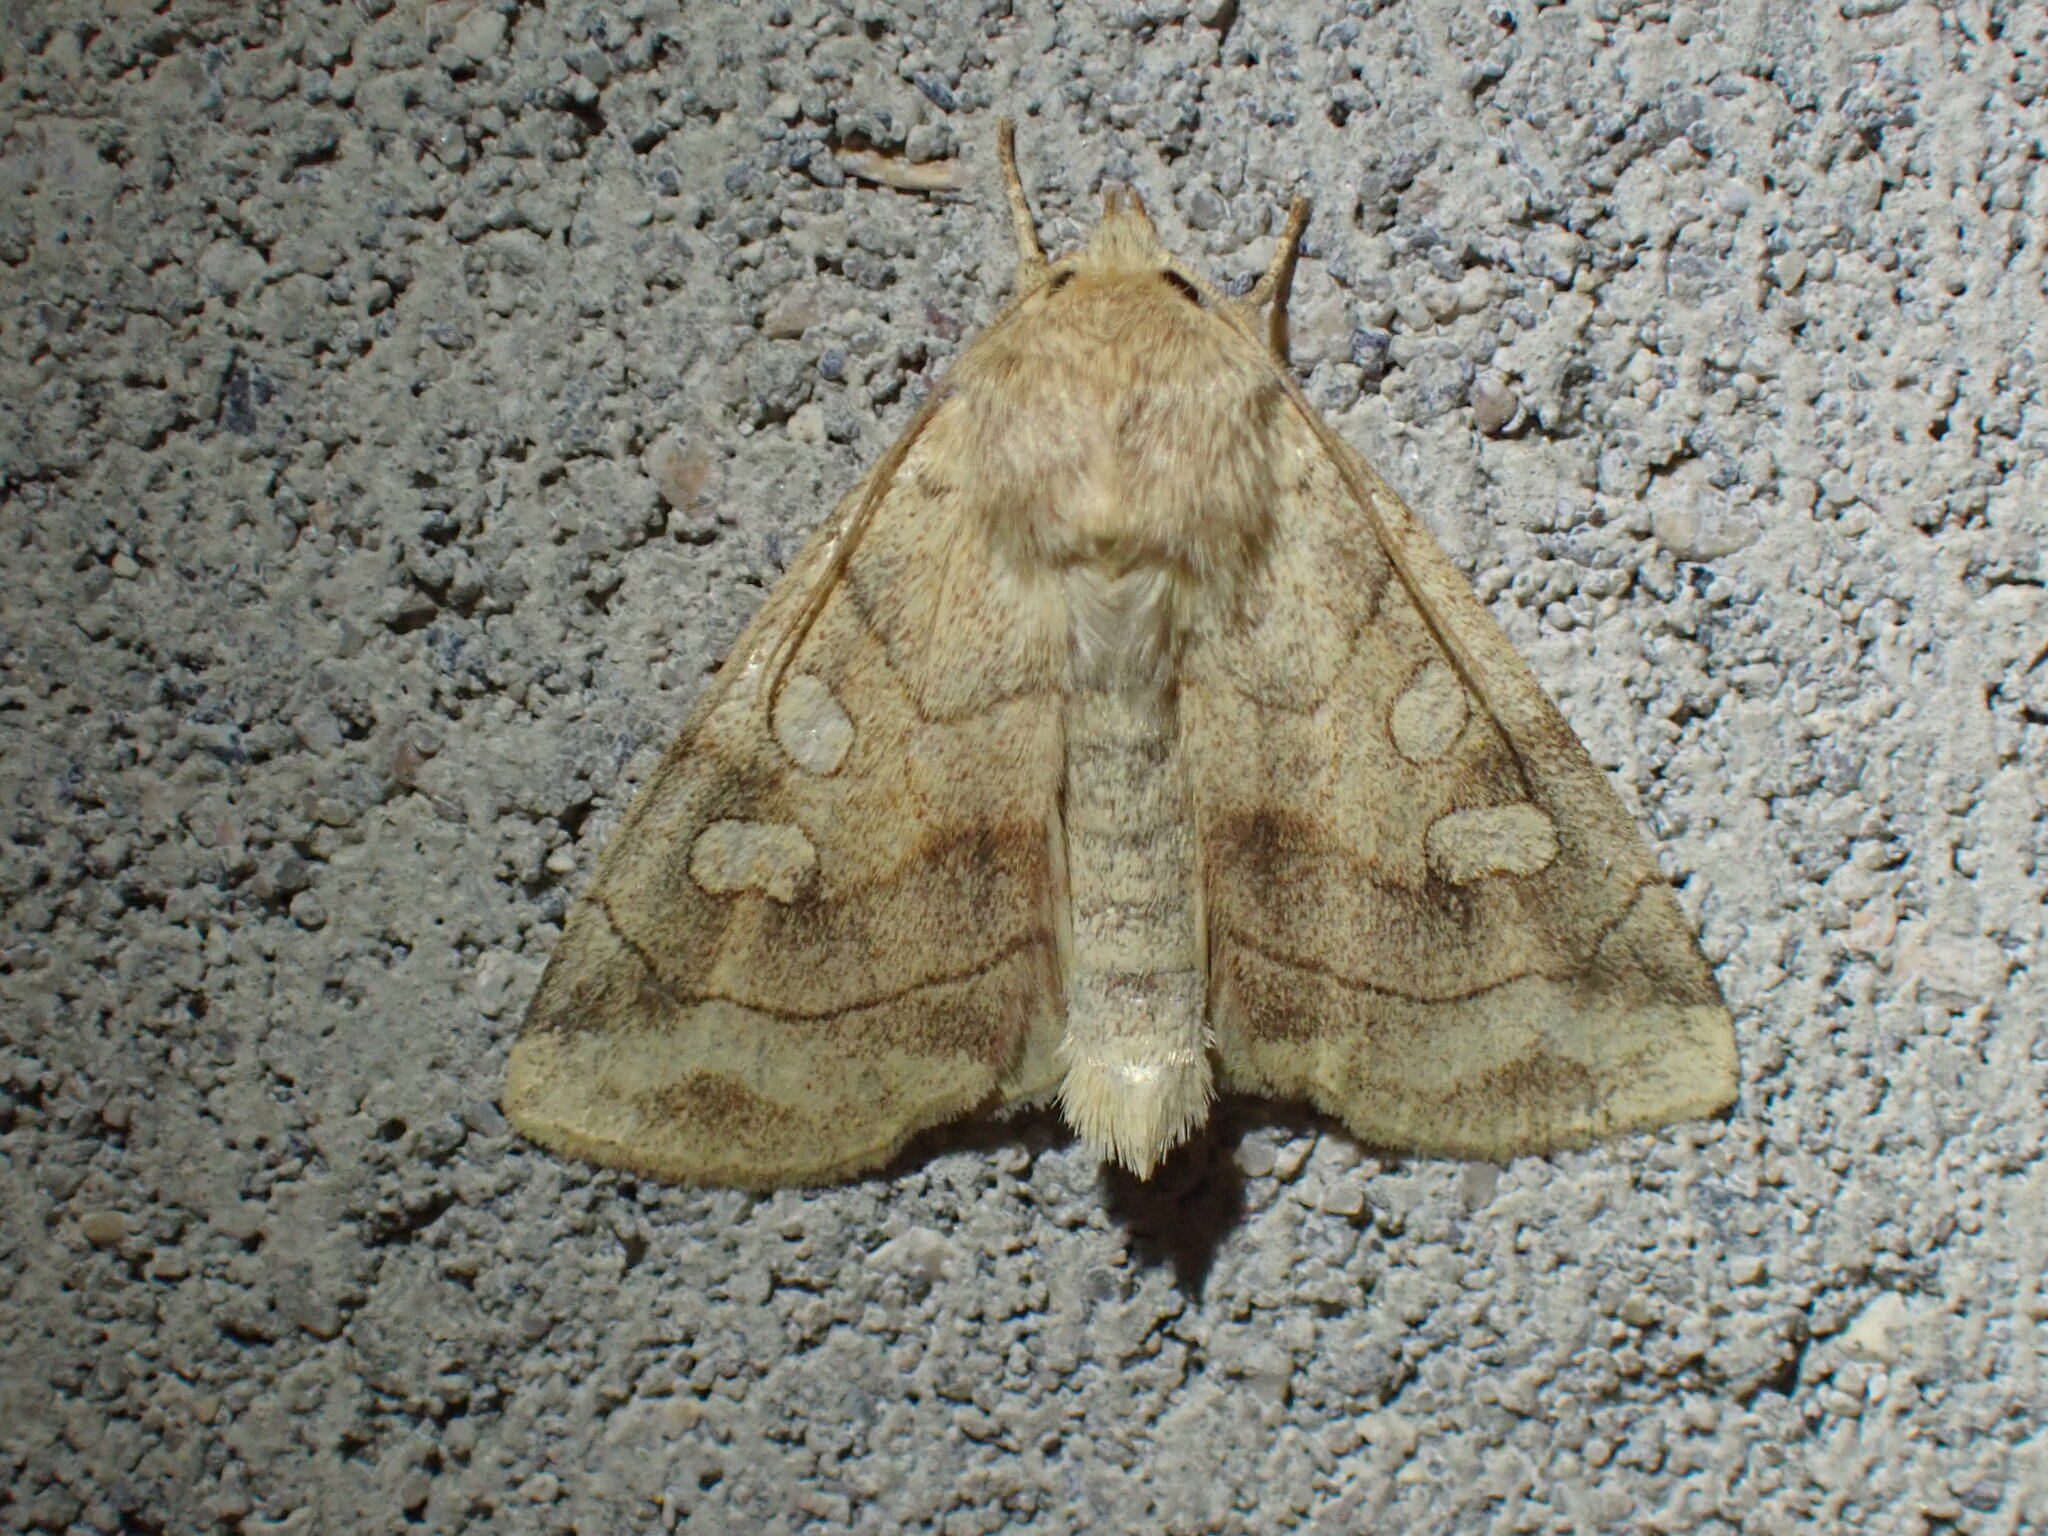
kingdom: Animalia
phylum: Arthropoda
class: Insecta
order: Lepidoptera
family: Noctuidae
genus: Enargia
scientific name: Enargia decolor
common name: Aspen twoleaf tier moth
